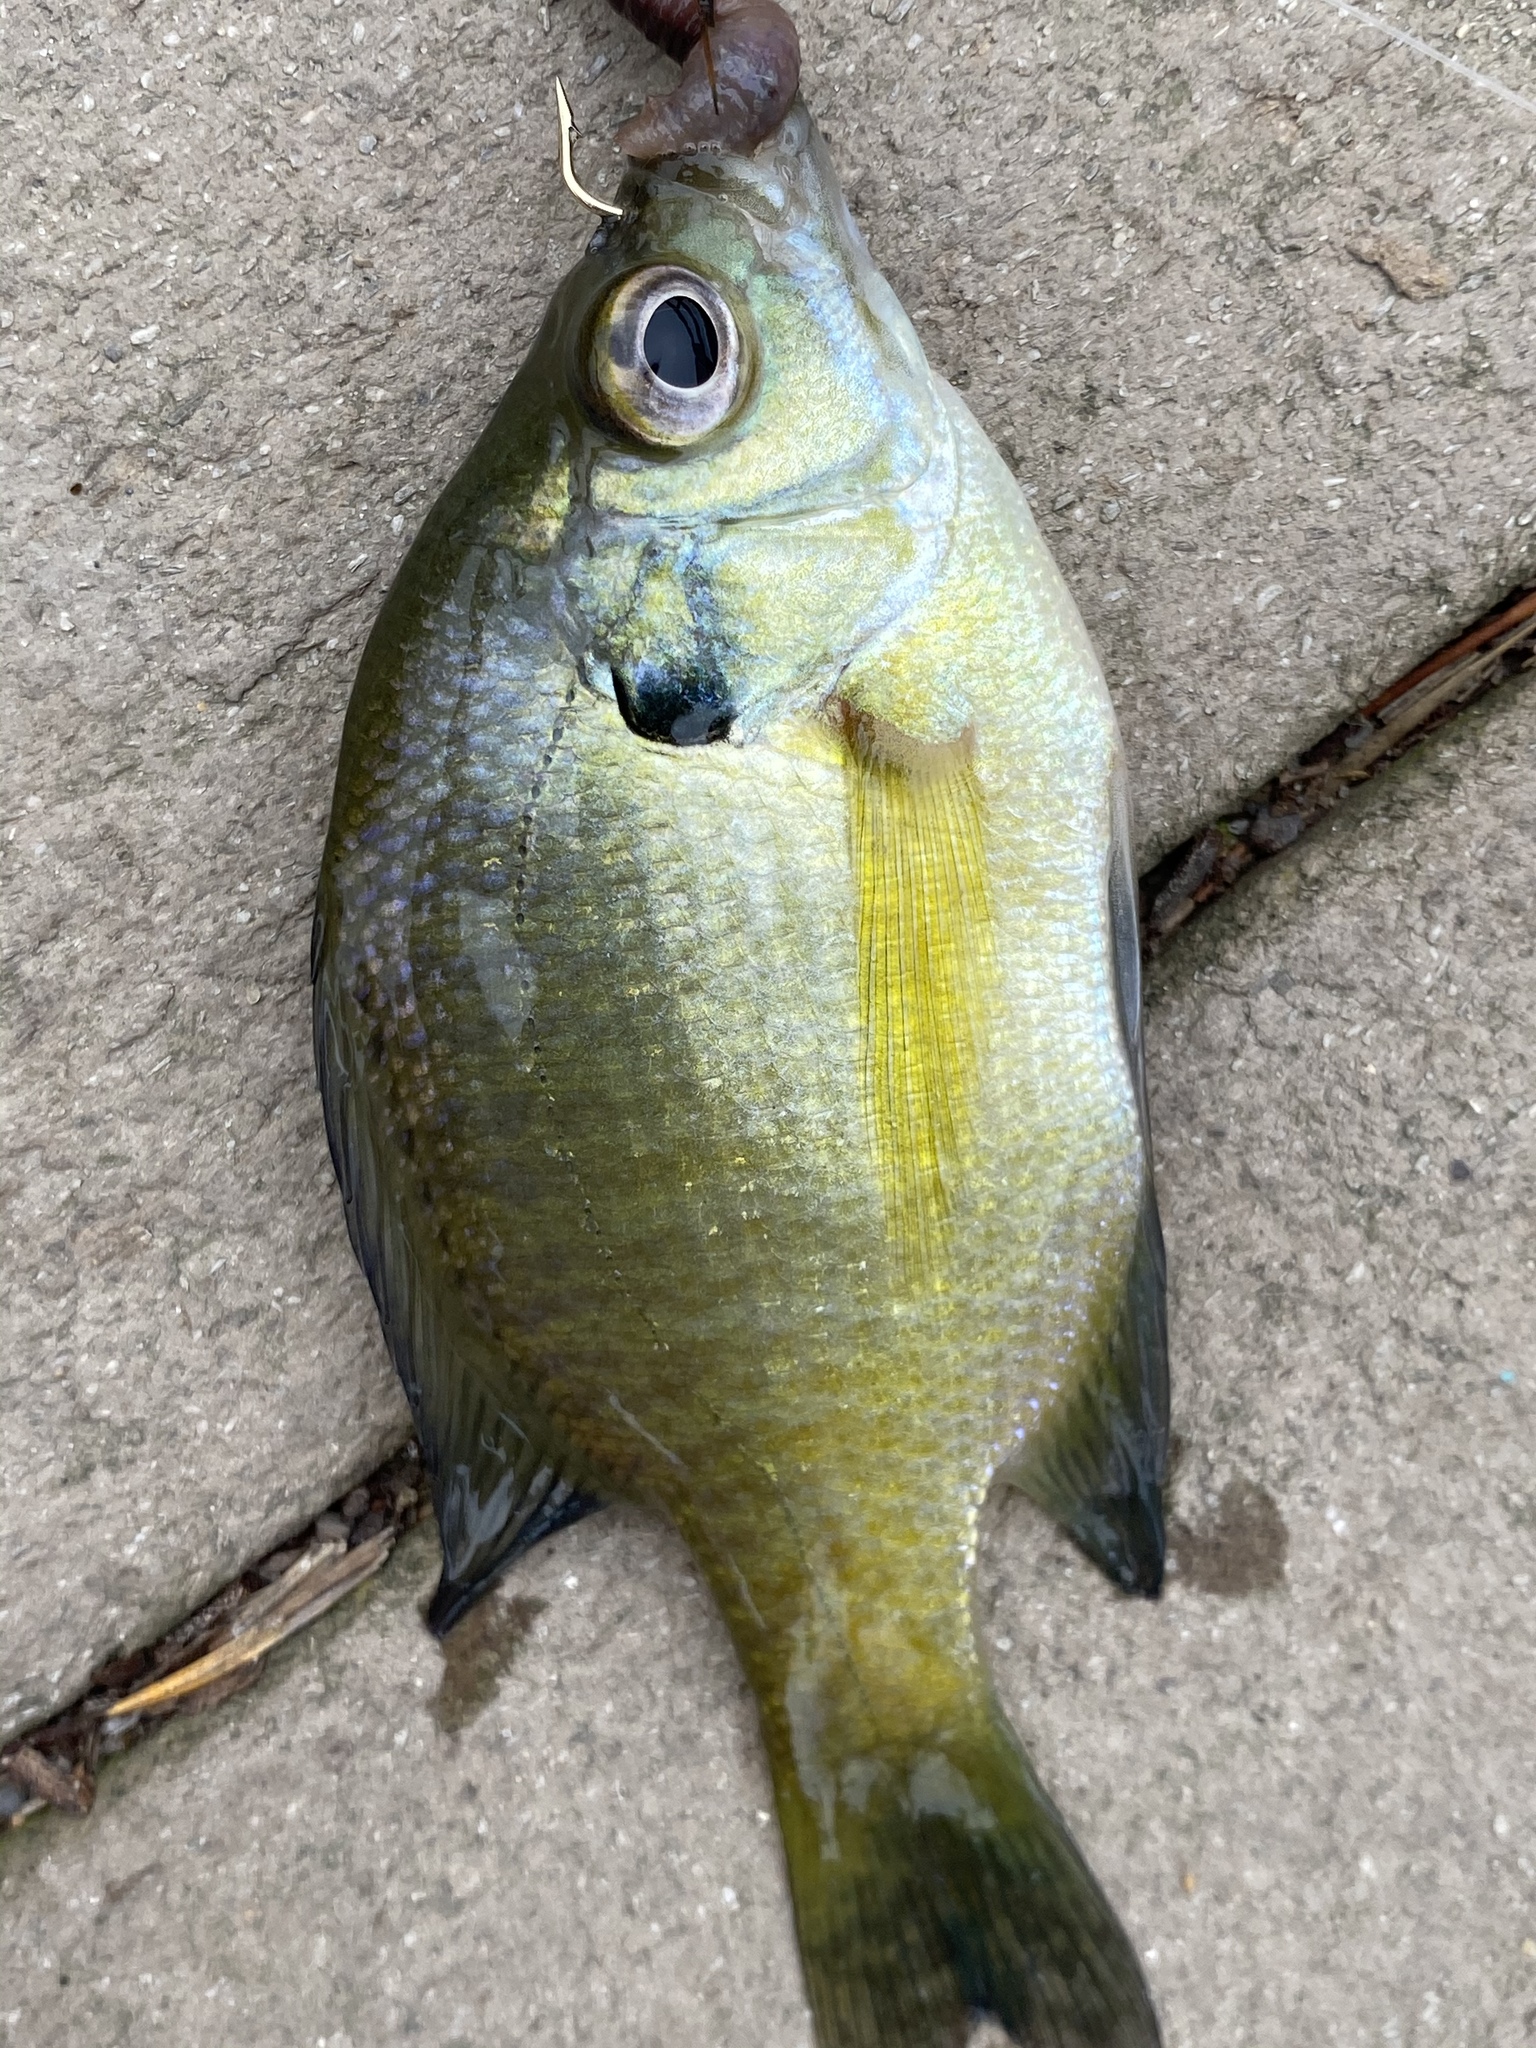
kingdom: Animalia
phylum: Chordata
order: Perciformes
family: Centrarchidae
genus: Lepomis
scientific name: Lepomis macrochirus
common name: Bluegill
